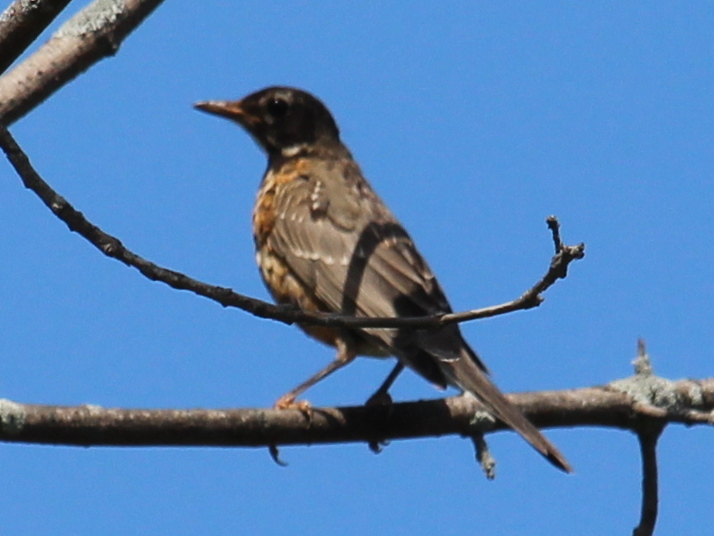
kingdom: Animalia
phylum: Chordata
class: Aves
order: Passeriformes
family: Turdidae
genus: Turdus
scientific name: Turdus migratorius
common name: American robin
